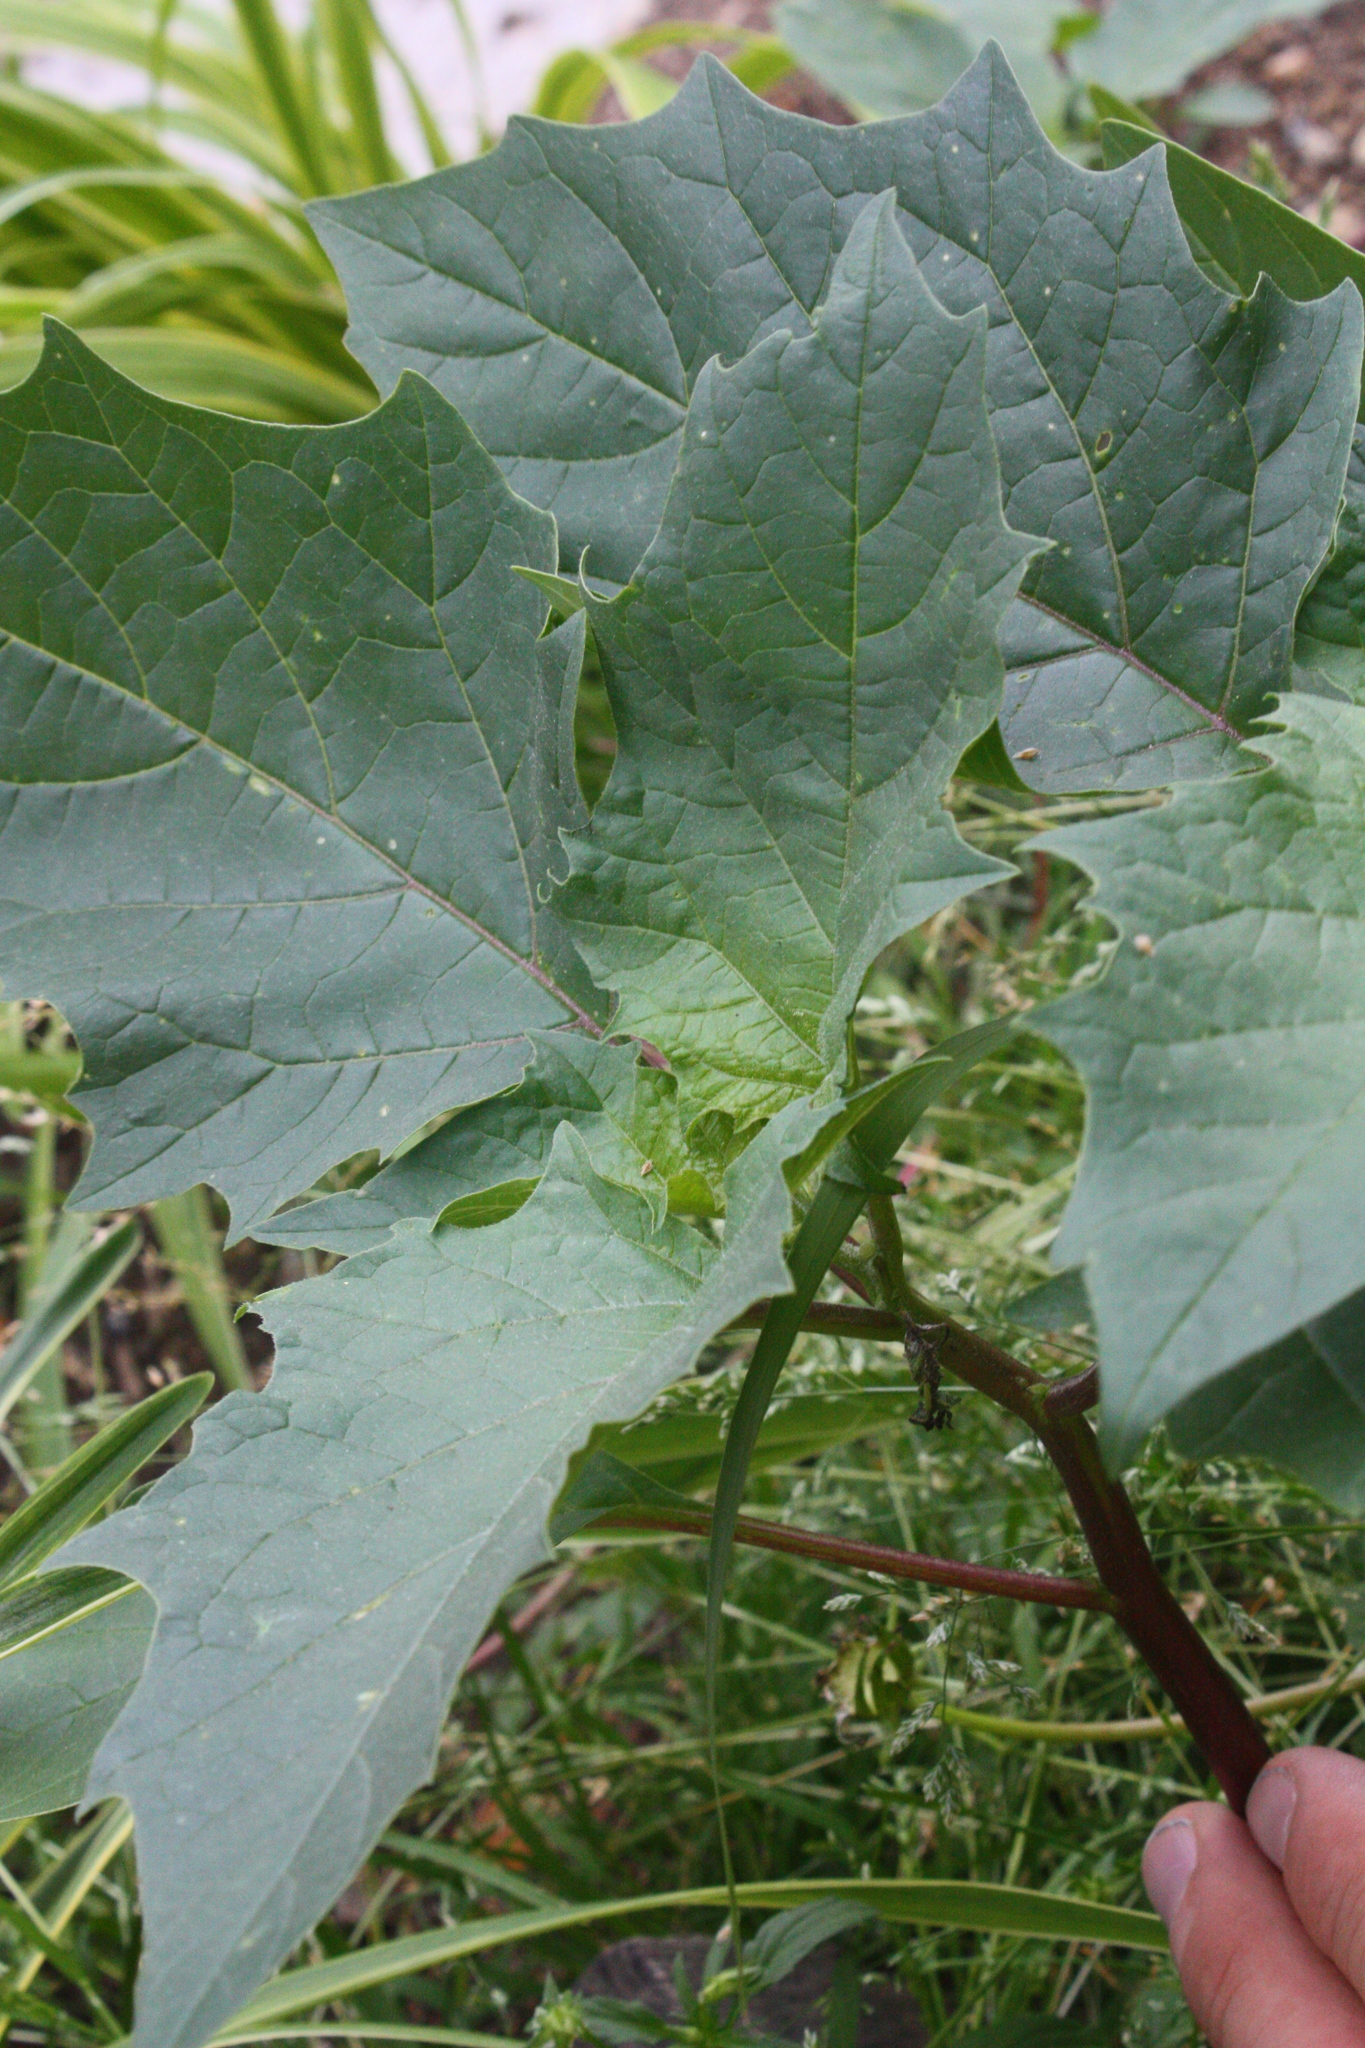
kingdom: Plantae
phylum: Tracheophyta
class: Magnoliopsida
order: Solanales
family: Solanaceae
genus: Datura
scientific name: Datura stramonium
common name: Thorn-apple
